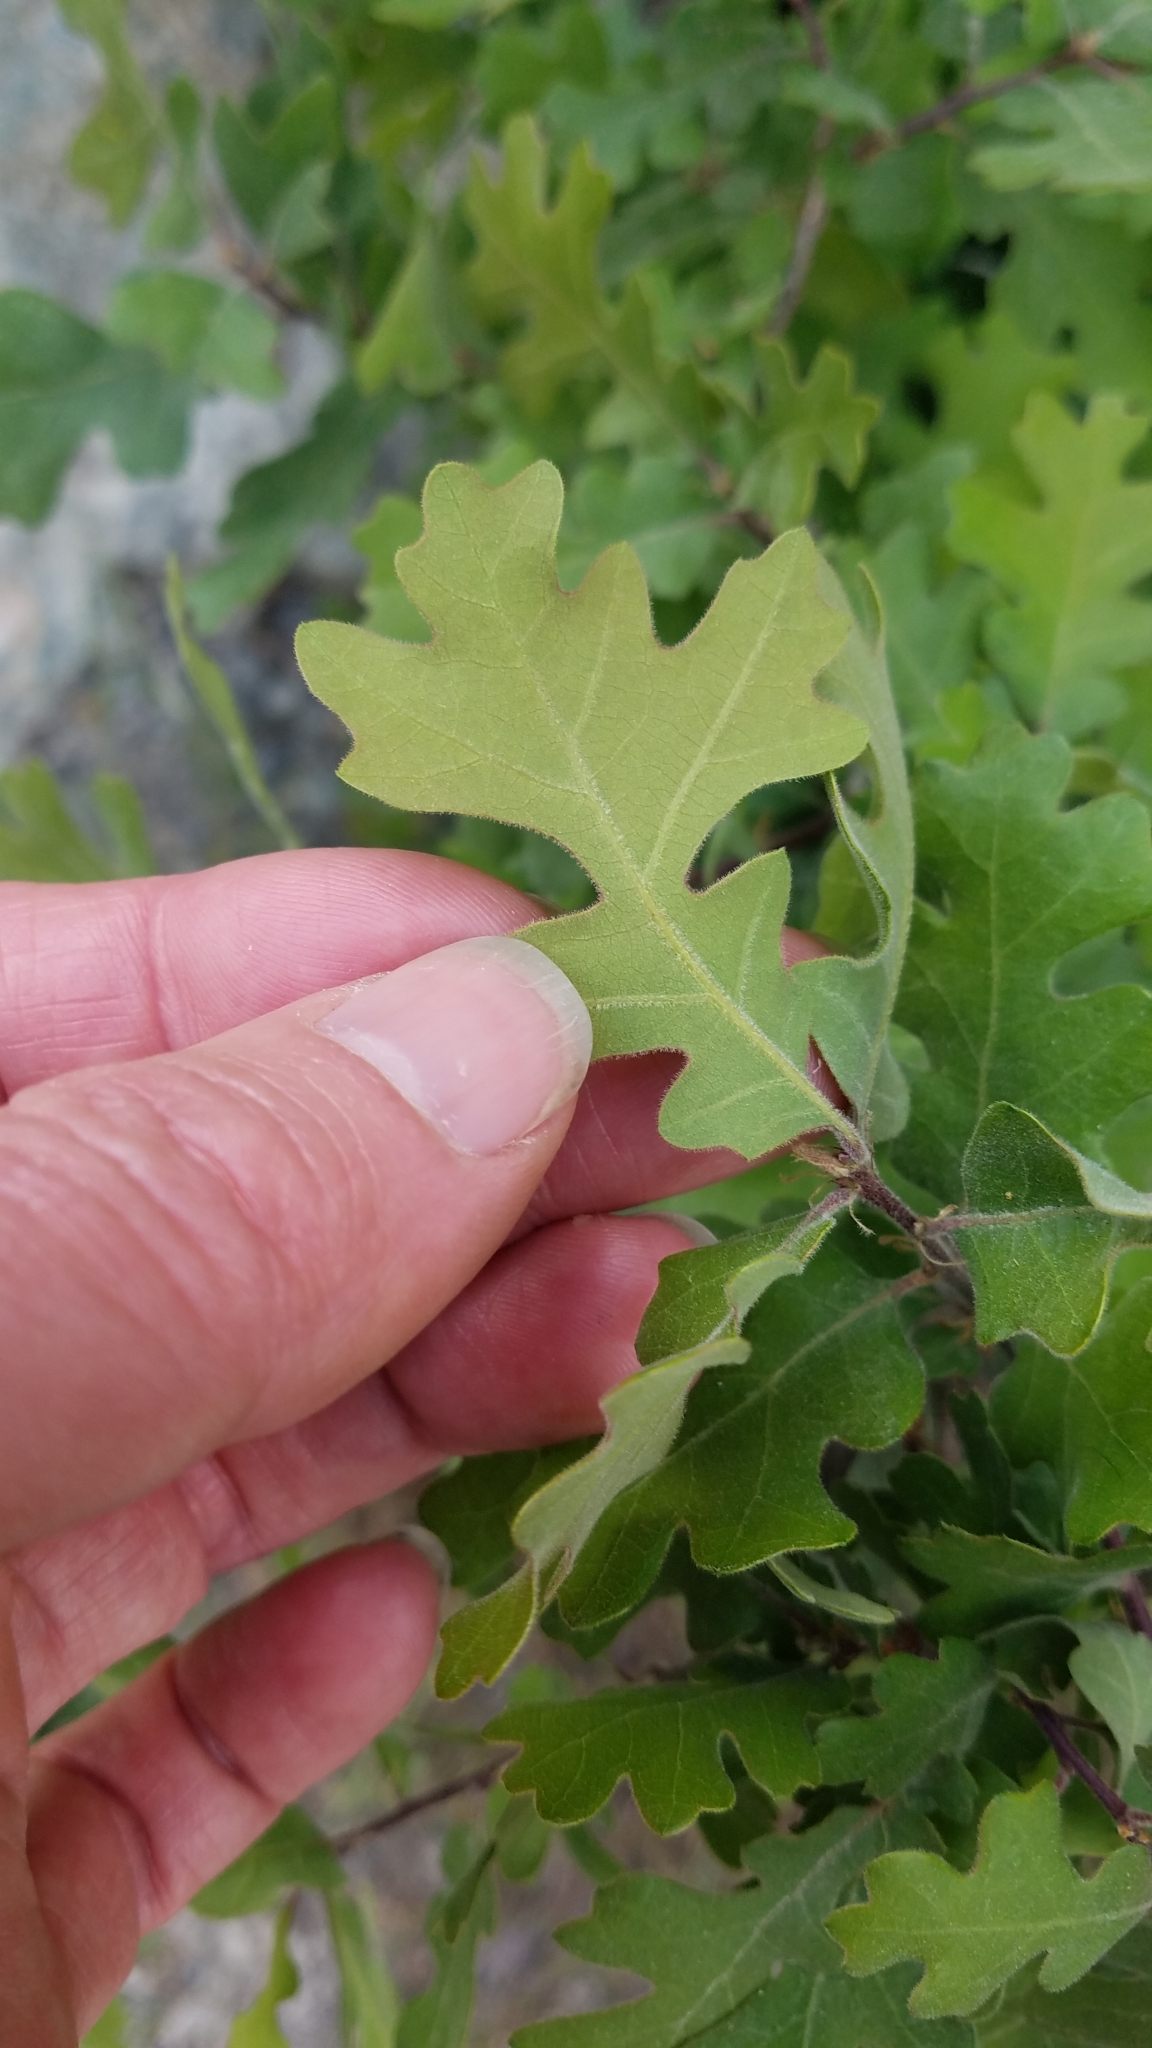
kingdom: Plantae
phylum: Tracheophyta
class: Magnoliopsida
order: Fagales
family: Fagaceae
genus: Quercus
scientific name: Quercus lobata
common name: Valley oak
